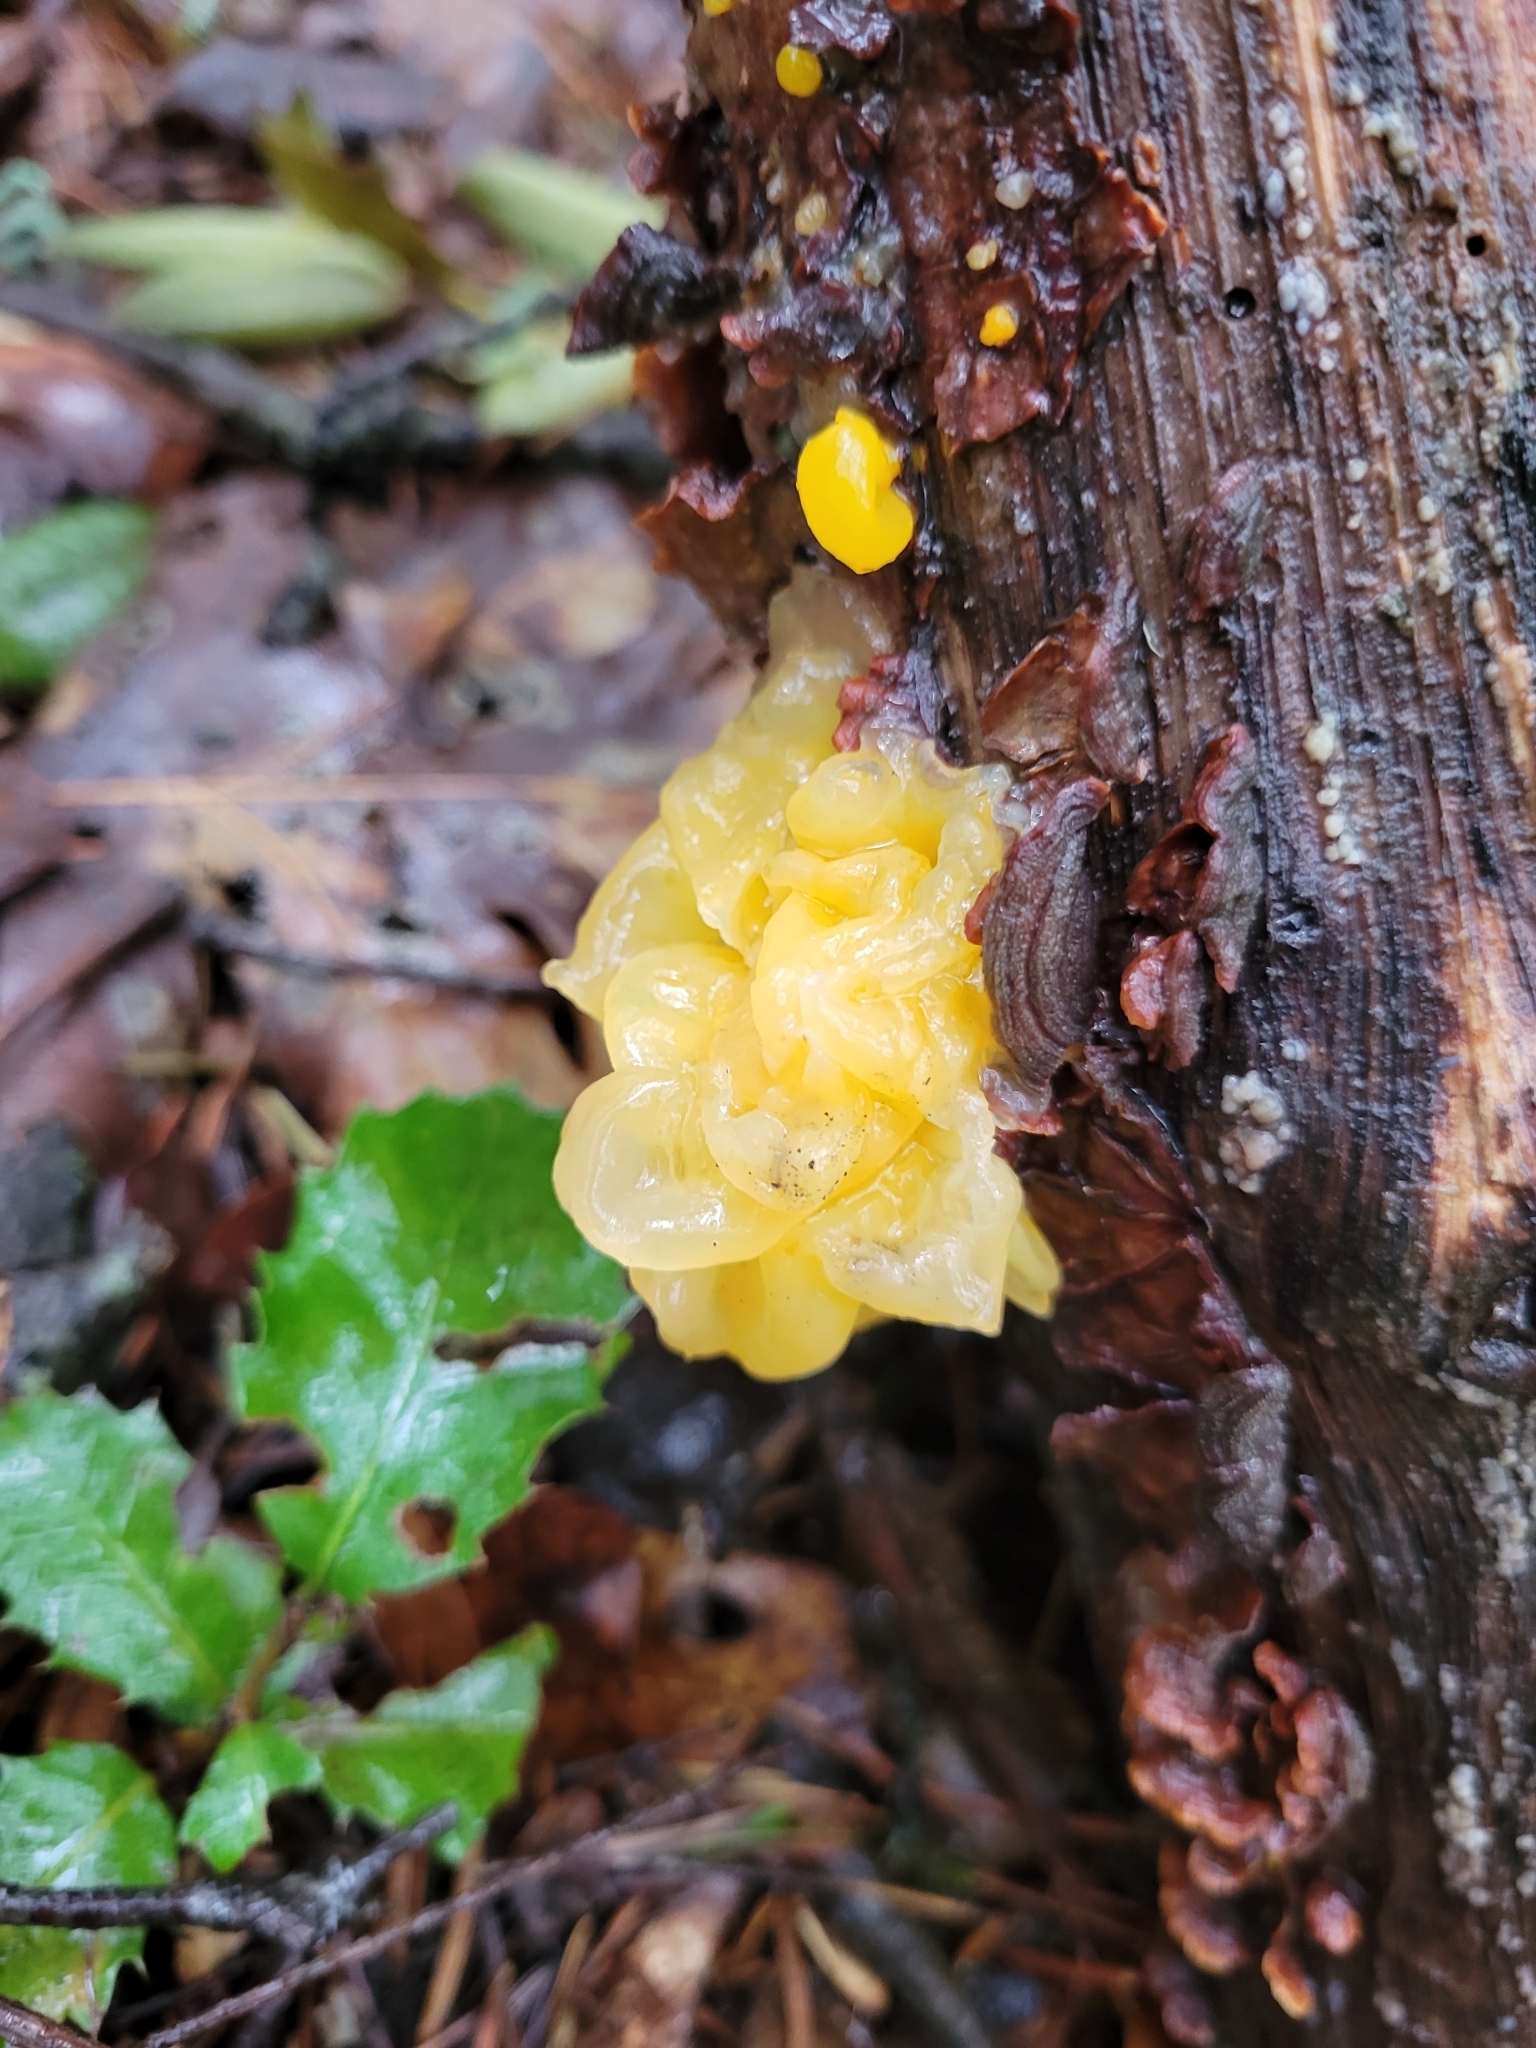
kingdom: Fungi
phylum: Basidiomycota
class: Tremellomycetes
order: Tremellales
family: Naemateliaceae
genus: Naematelia
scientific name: Naematelia aurantia
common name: Golden ear
